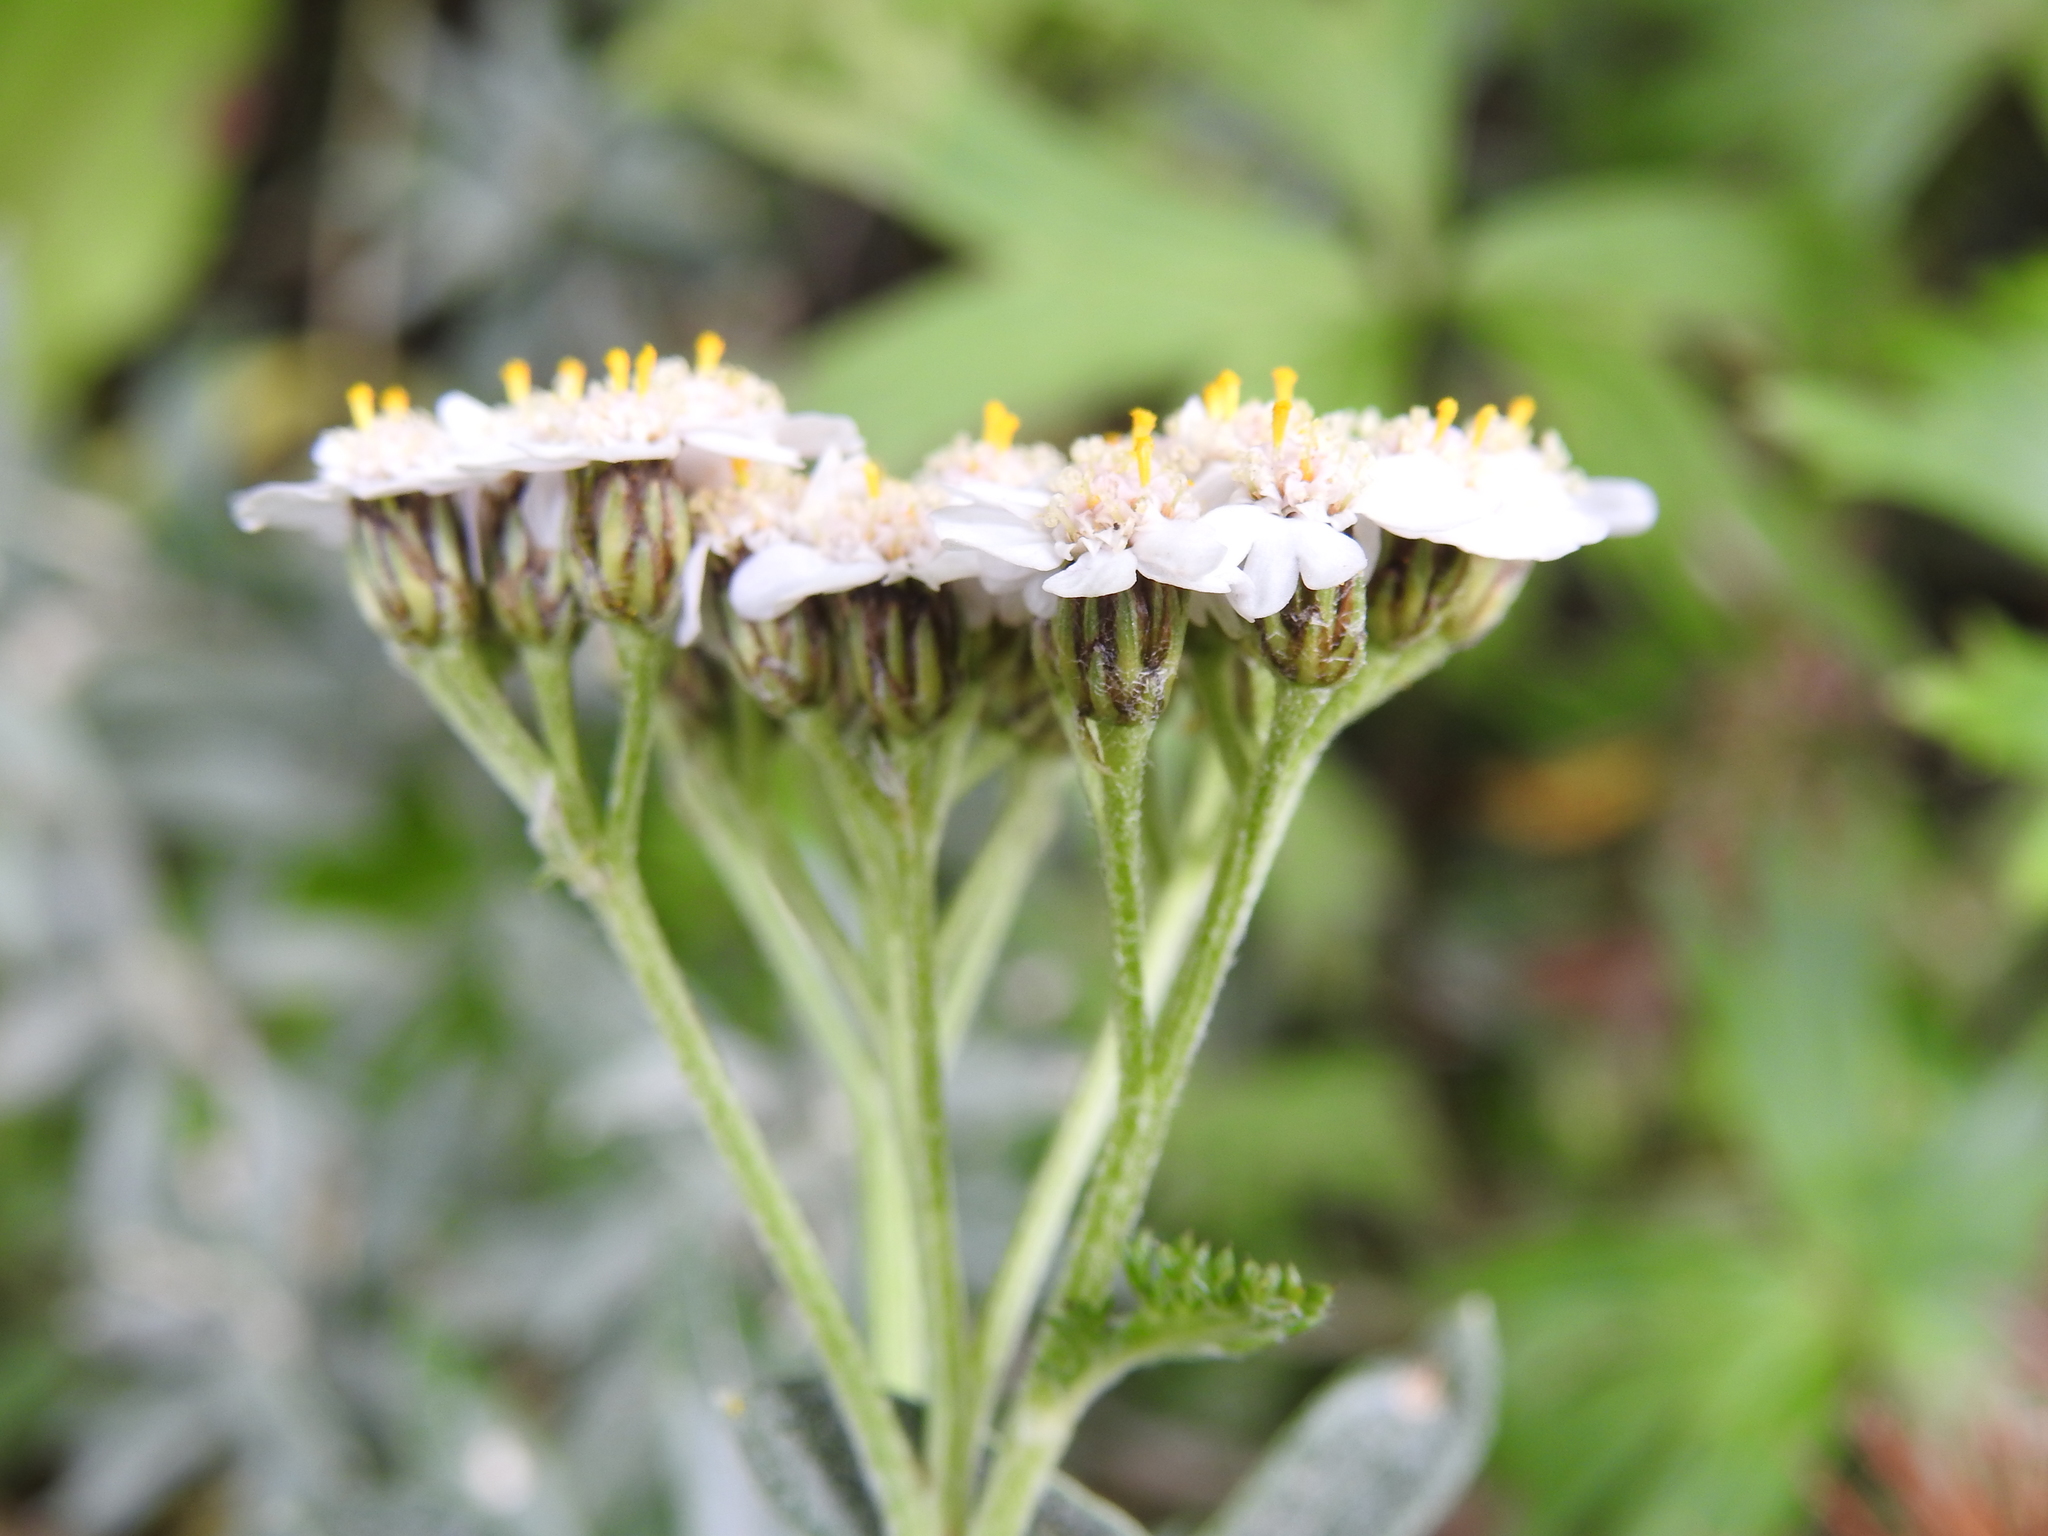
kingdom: Plantae
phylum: Tracheophyta
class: Magnoliopsida
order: Asterales
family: Asteraceae
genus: Achillea
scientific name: Achillea millefolium
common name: Yarrow
